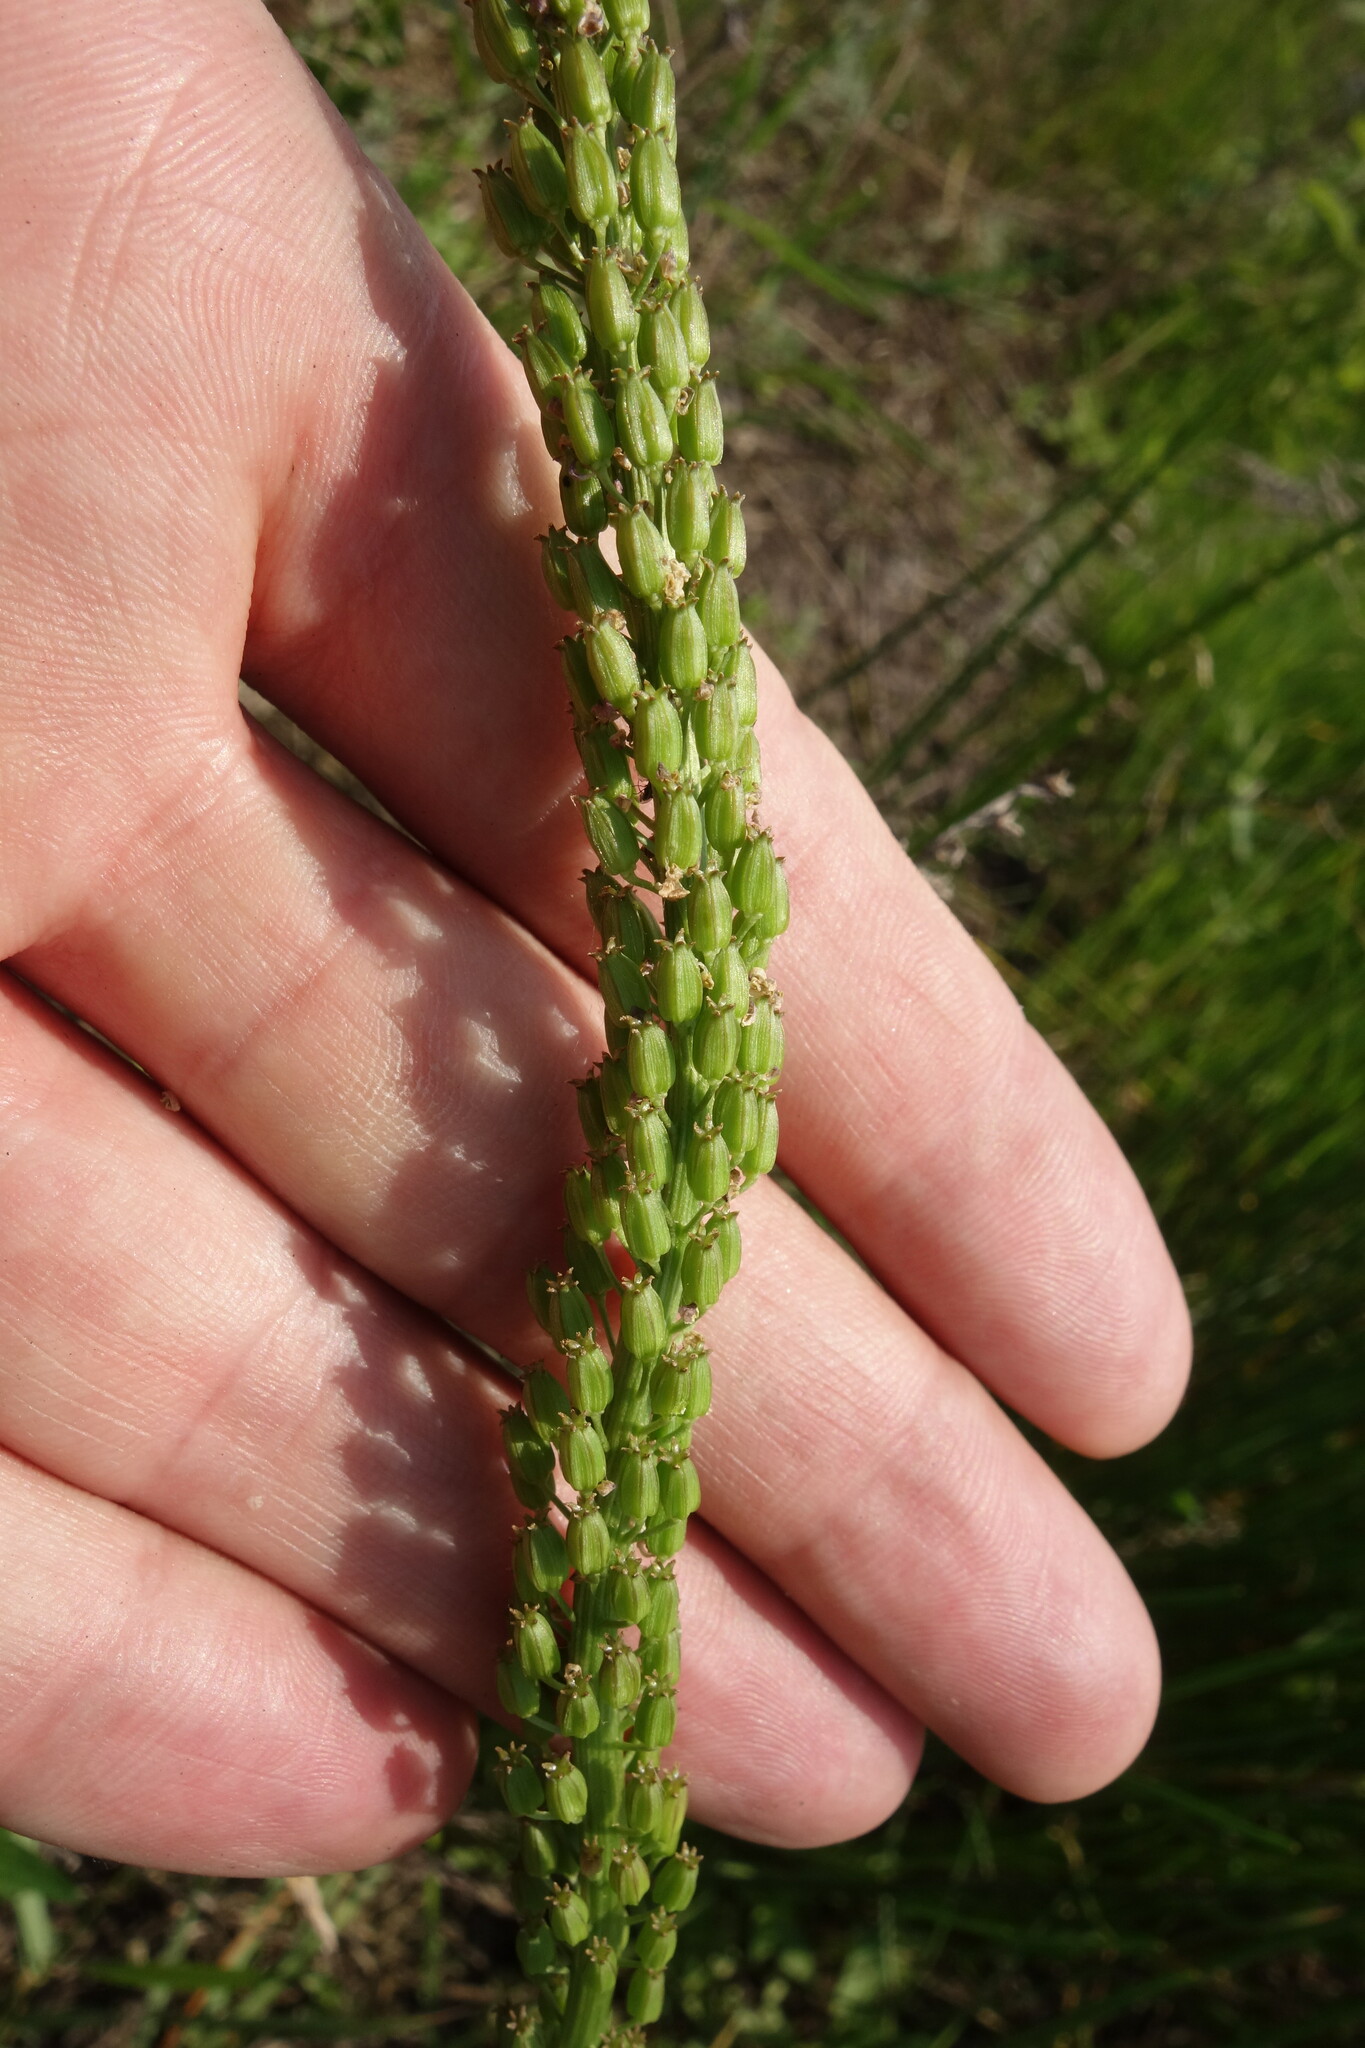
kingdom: Plantae
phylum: Tracheophyta
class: Liliopsida
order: Alismatales
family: Juncaginaceae
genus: Triglochin
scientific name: Triglochin maritima
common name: Sea arrowgrass
